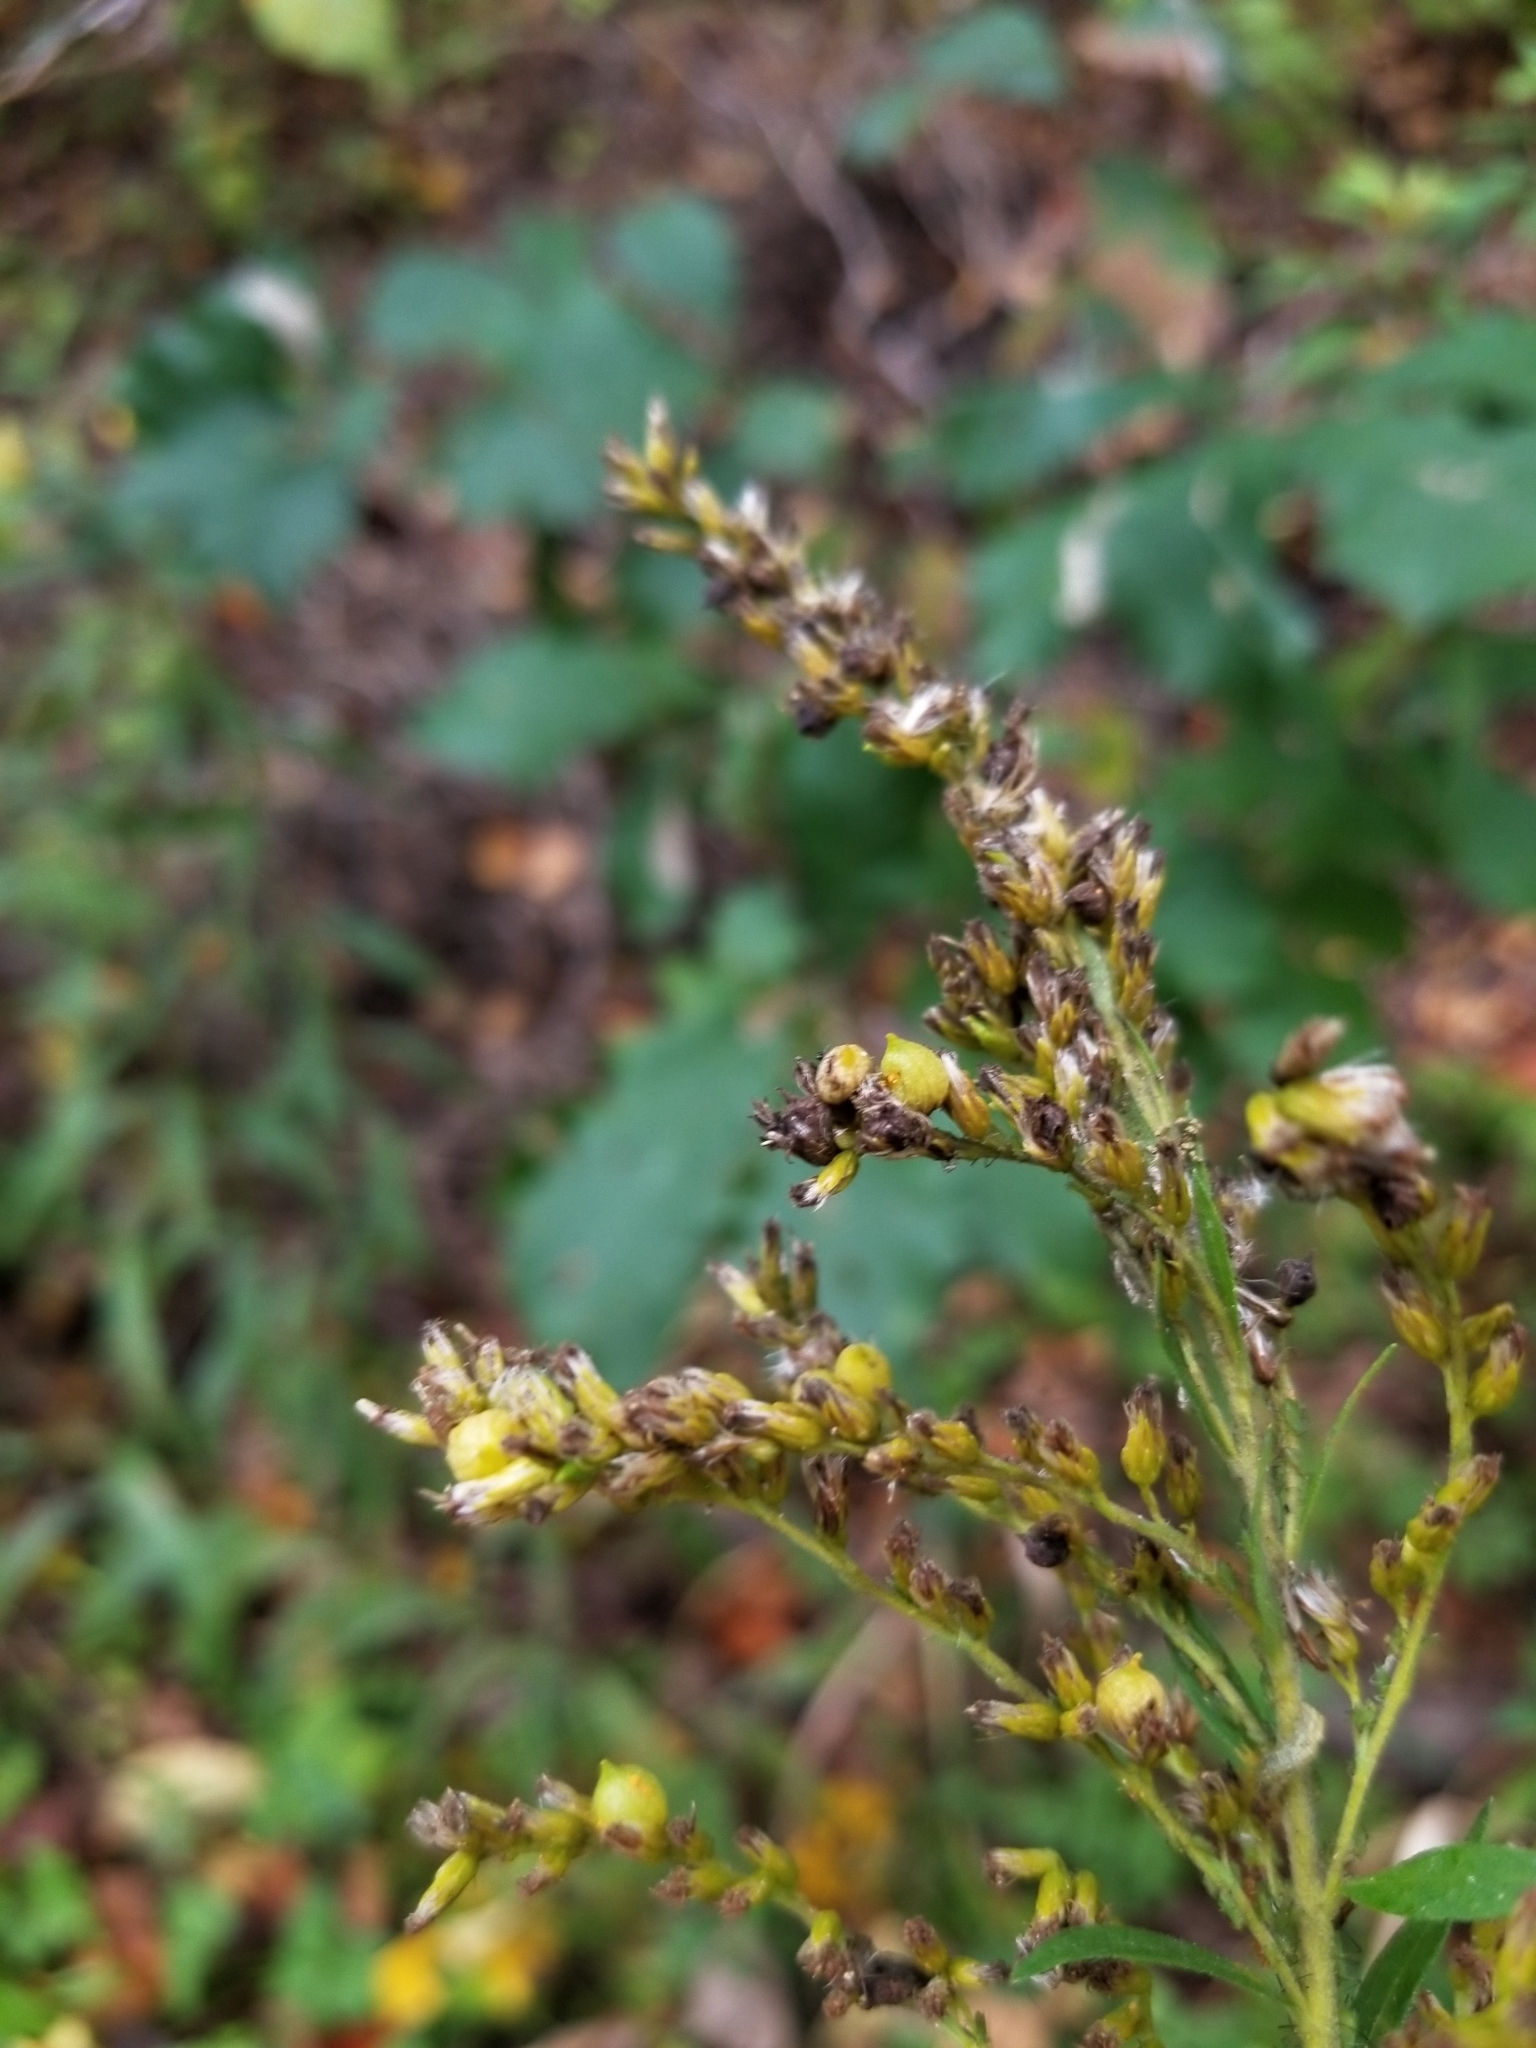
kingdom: Animalia
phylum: Arthropoda
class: Insecta
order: Diptera
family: Cecidomyiidae
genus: Schizomyia
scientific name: Schizomyia racemicola
